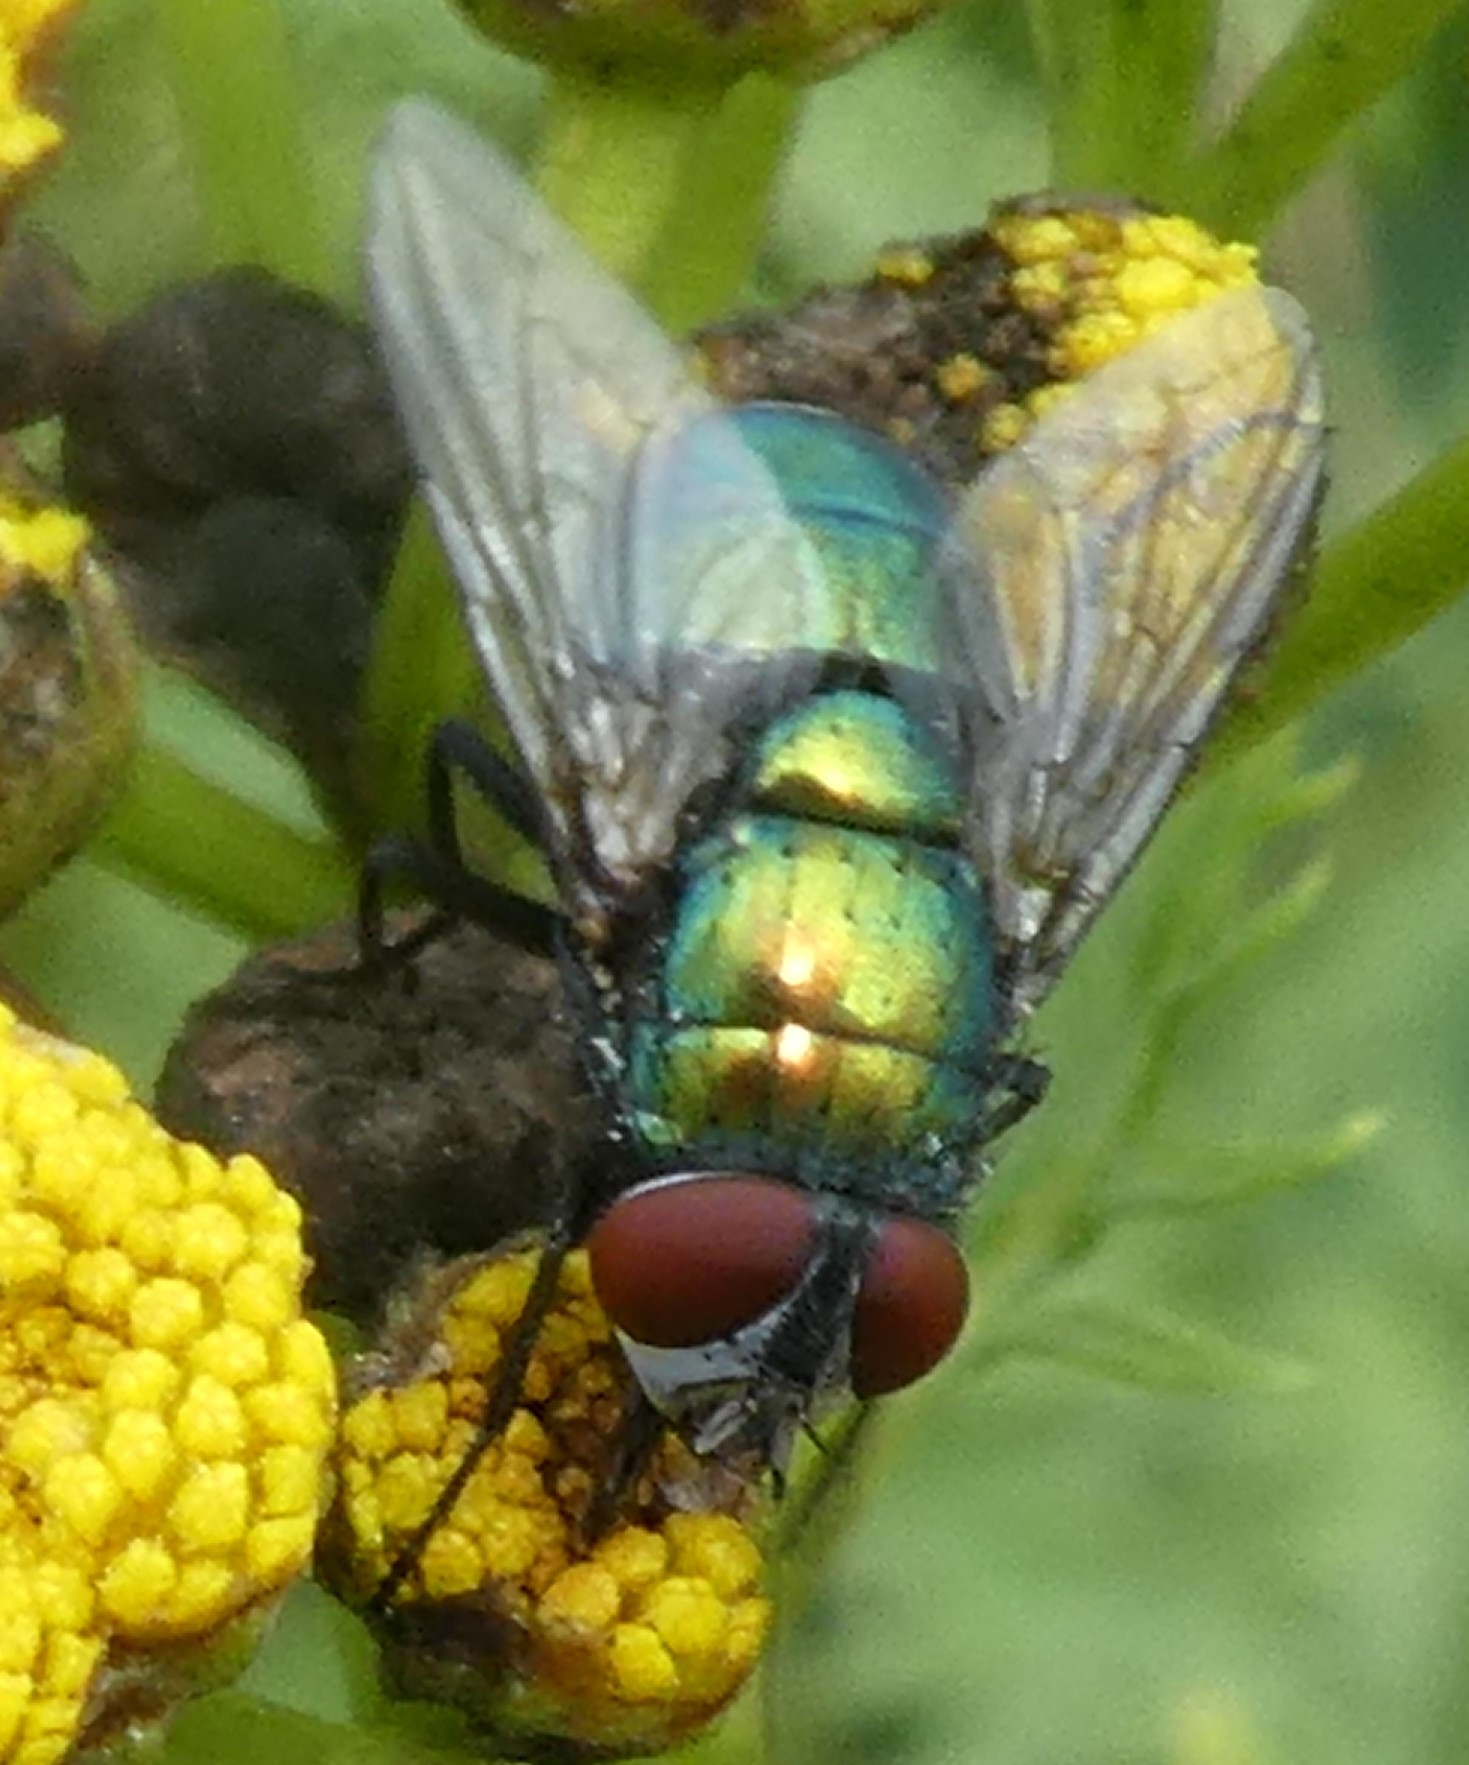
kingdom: Animalia
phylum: Arthropoda
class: Insecta
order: Diptera
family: Calliphoridae
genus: Lucilia
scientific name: Lucilia
